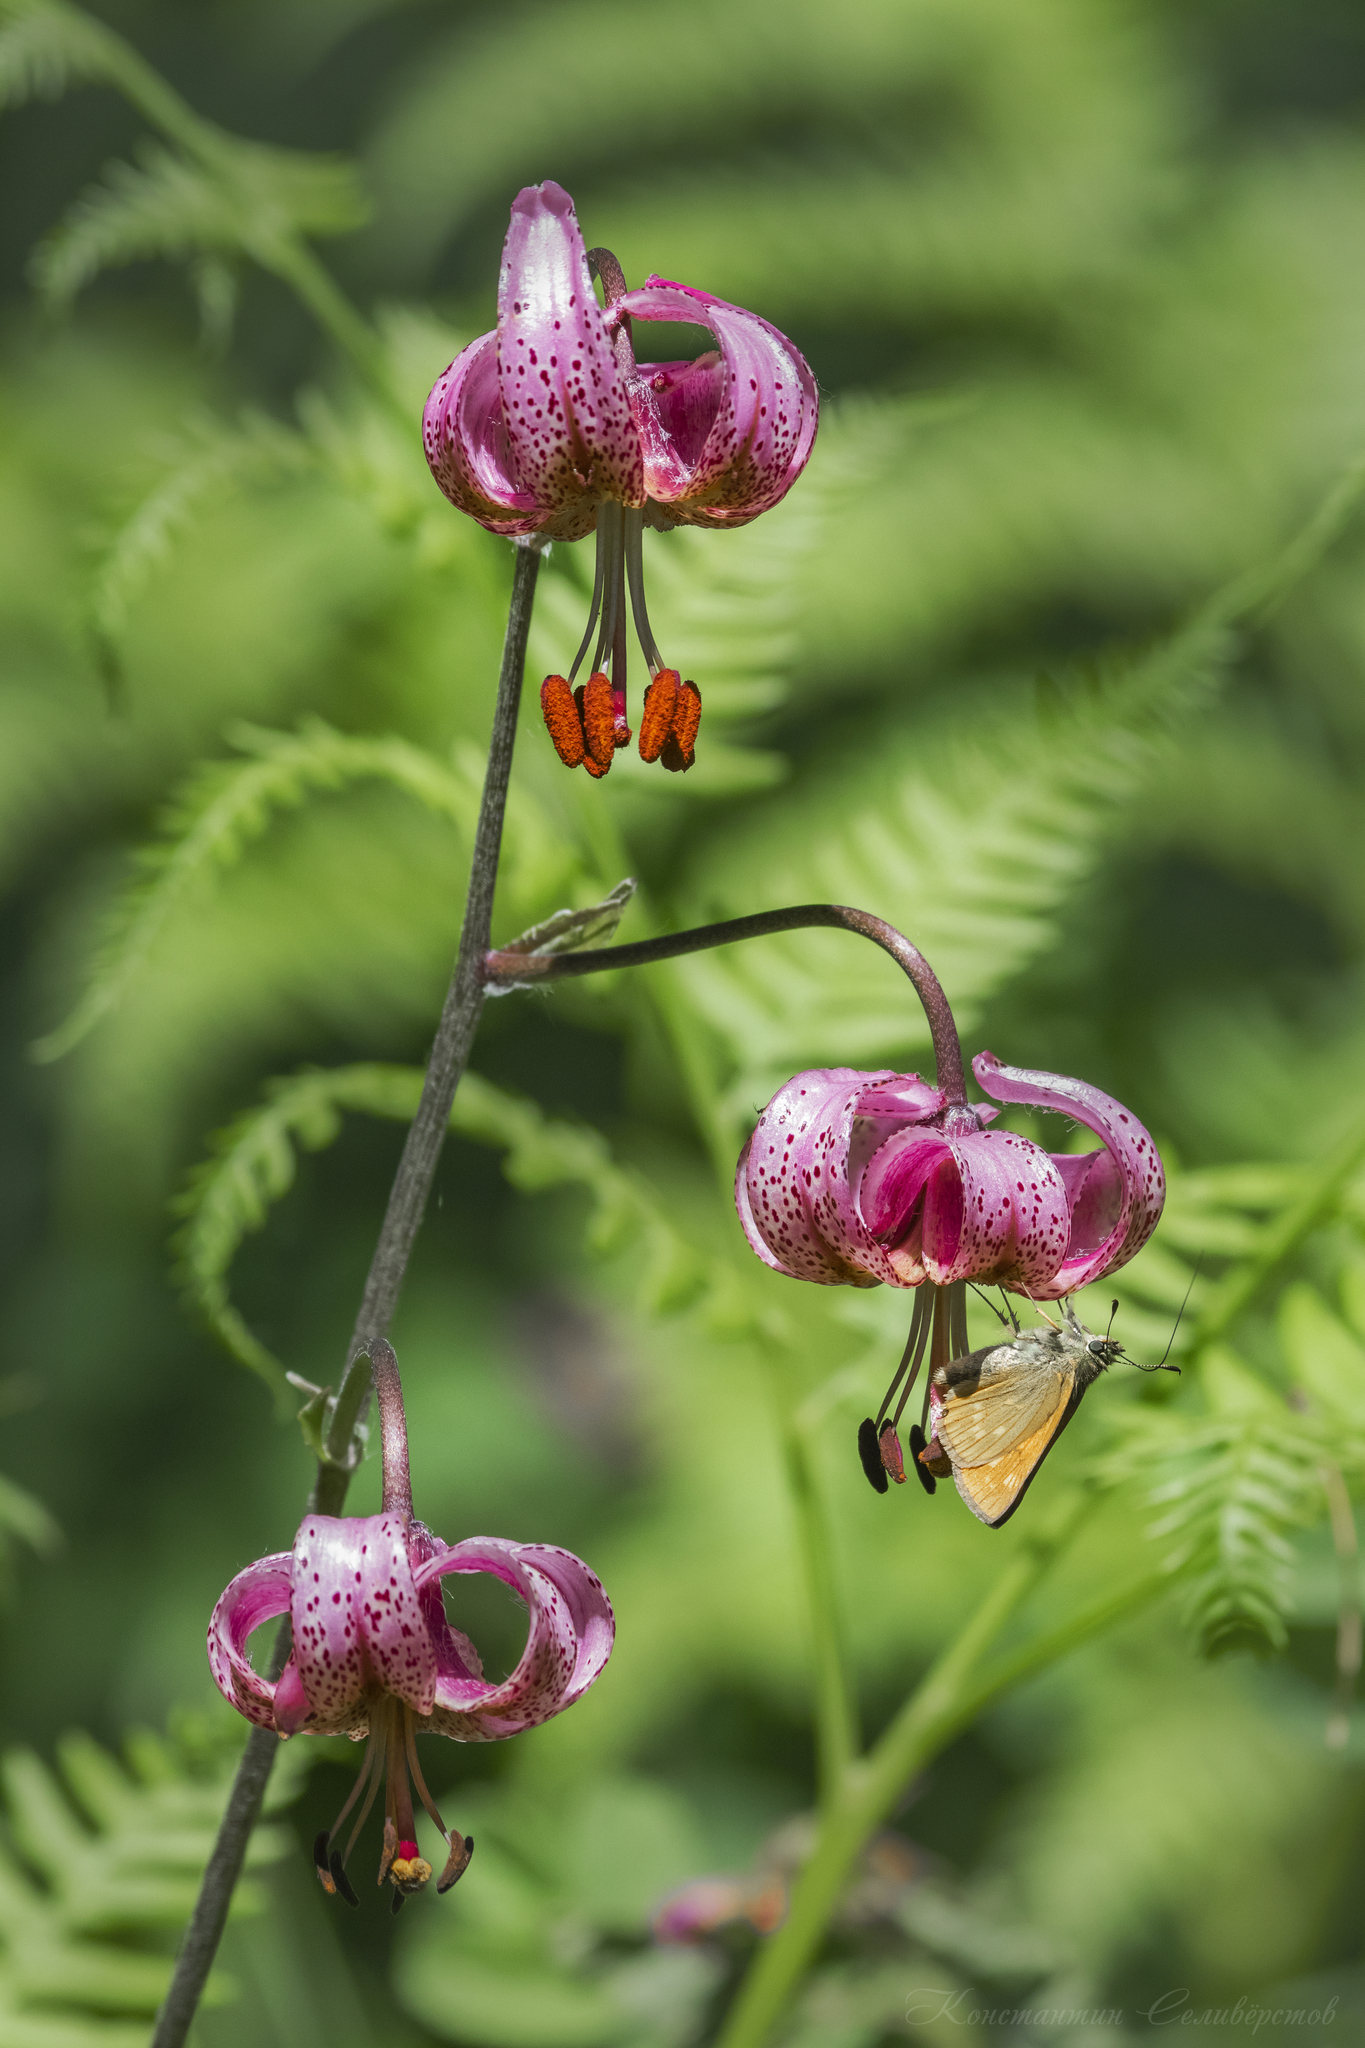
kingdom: Plantae
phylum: Tracheophyta
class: Liliopsida
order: Liliales
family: Liliaceae
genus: Lilium
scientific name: Lilium martagon
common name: Martagon lily
